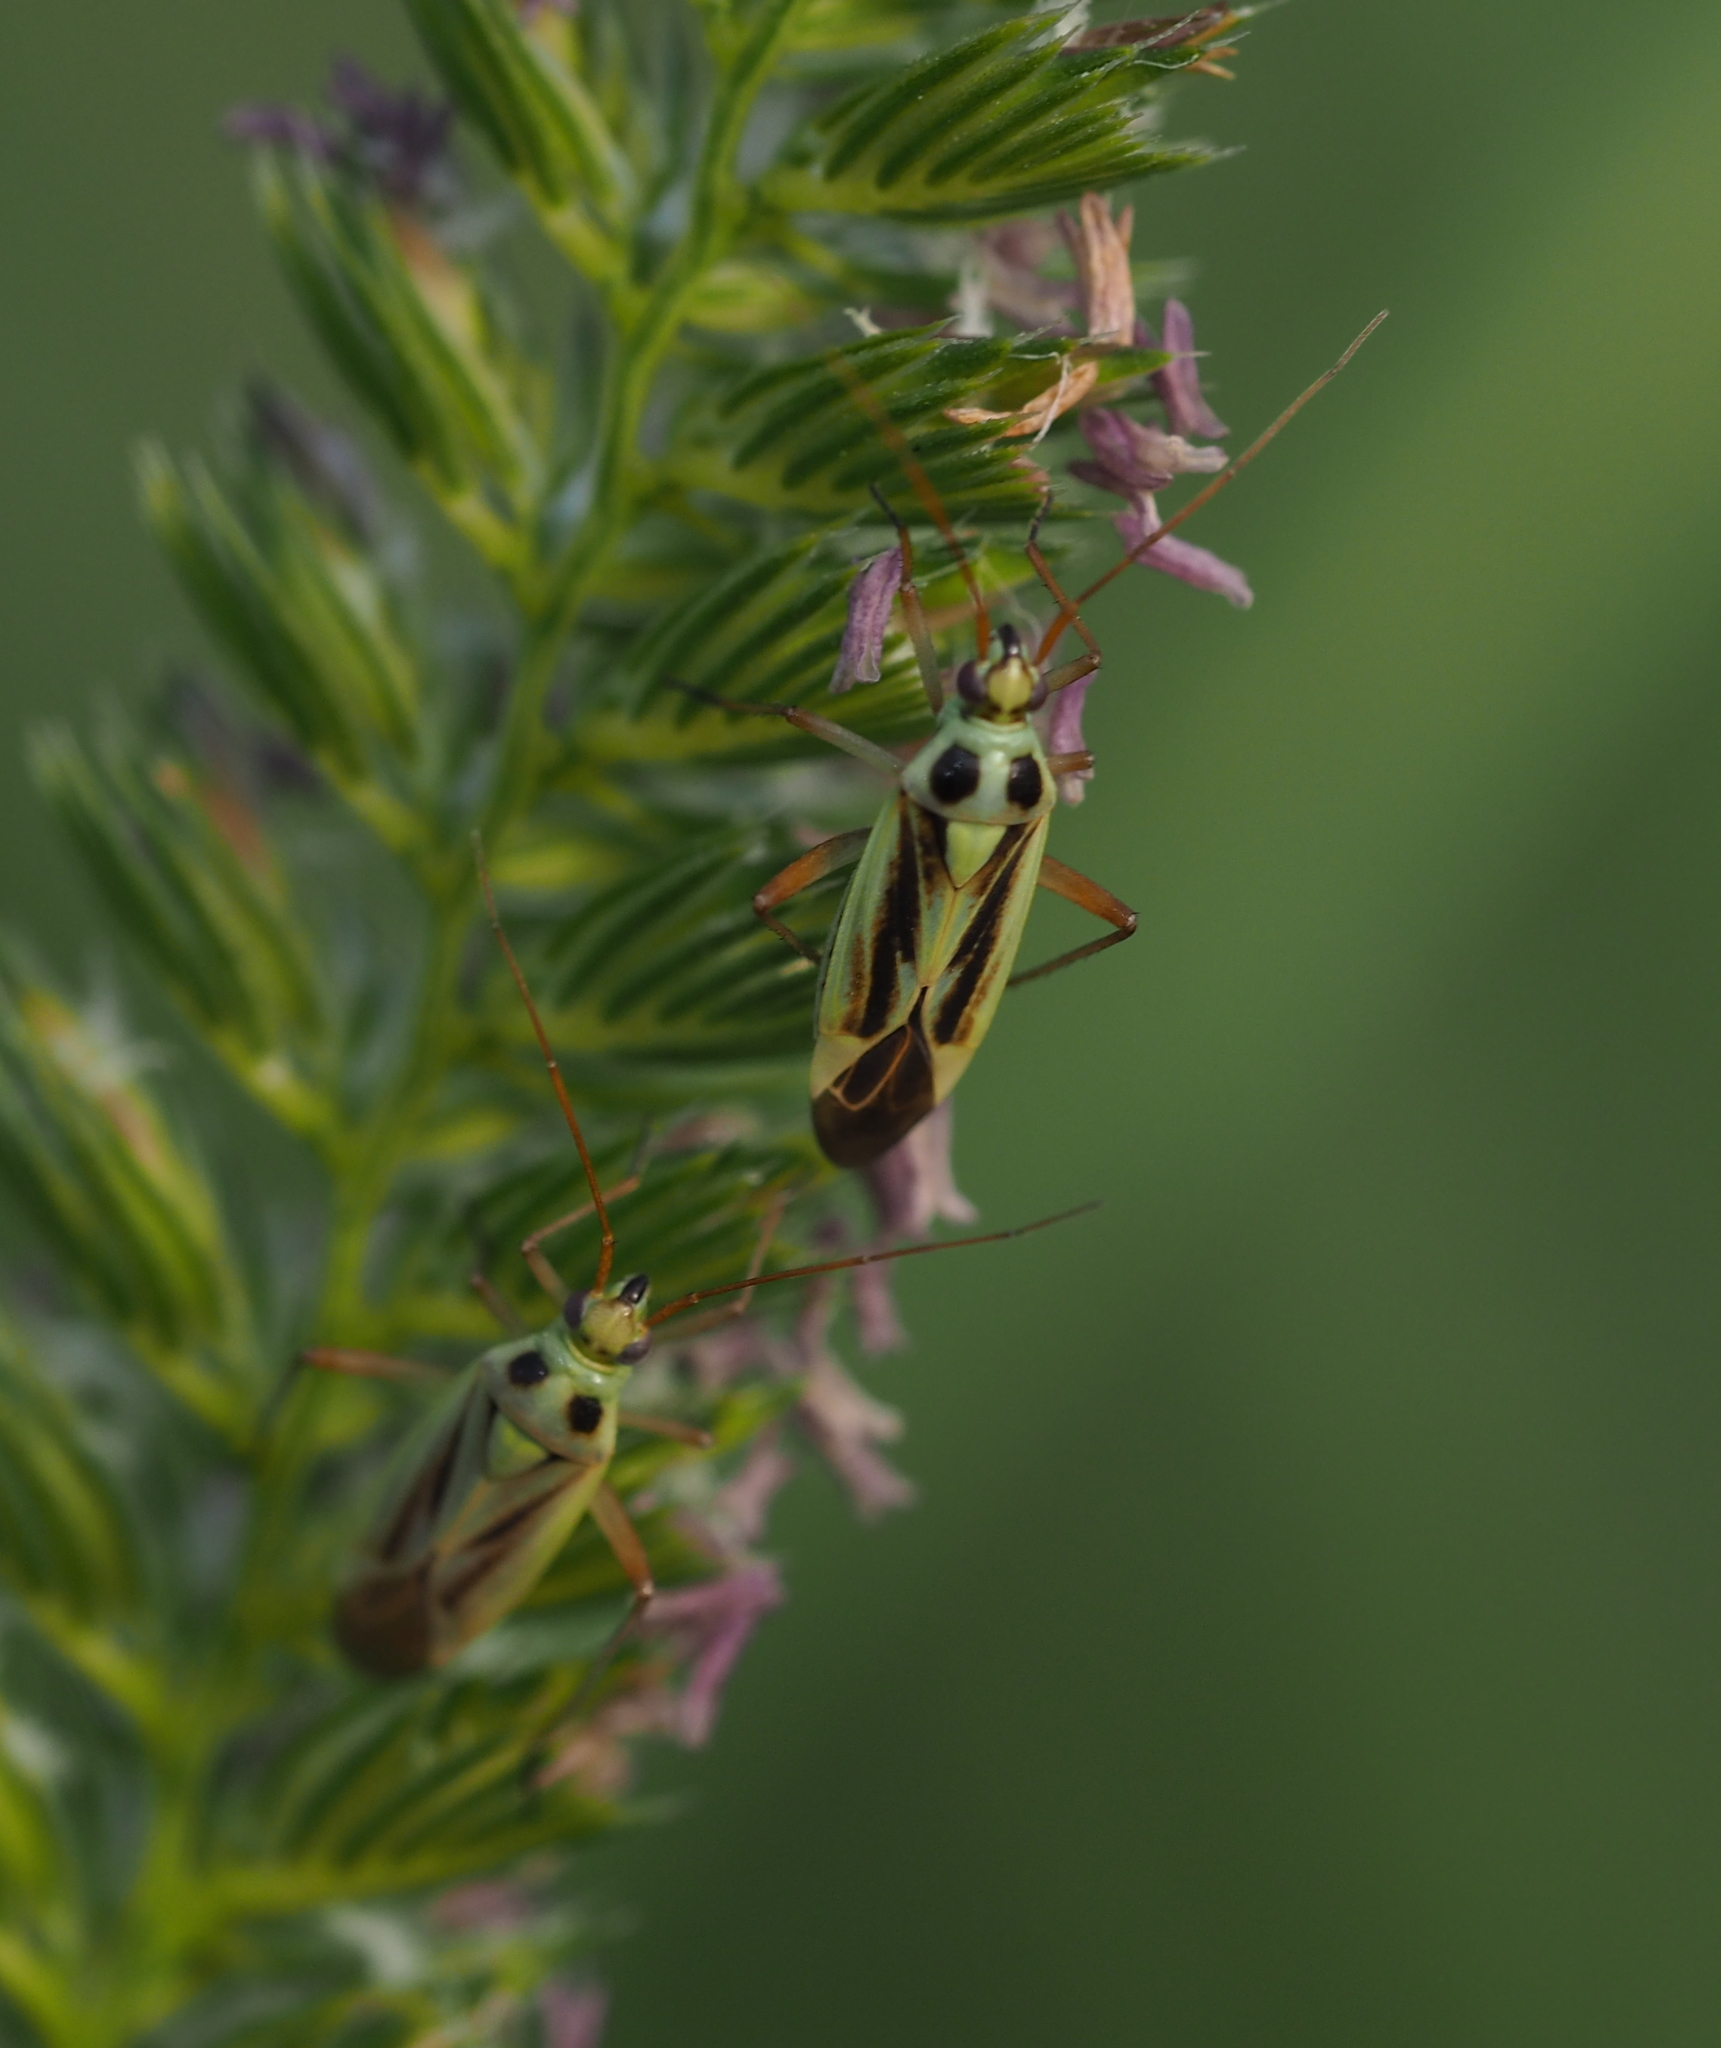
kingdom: Animalia
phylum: Arthropoda
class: Insecta
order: Hemiptera
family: Miridae
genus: Stenotus
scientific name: Stenotus binotatus
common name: Plant bug
